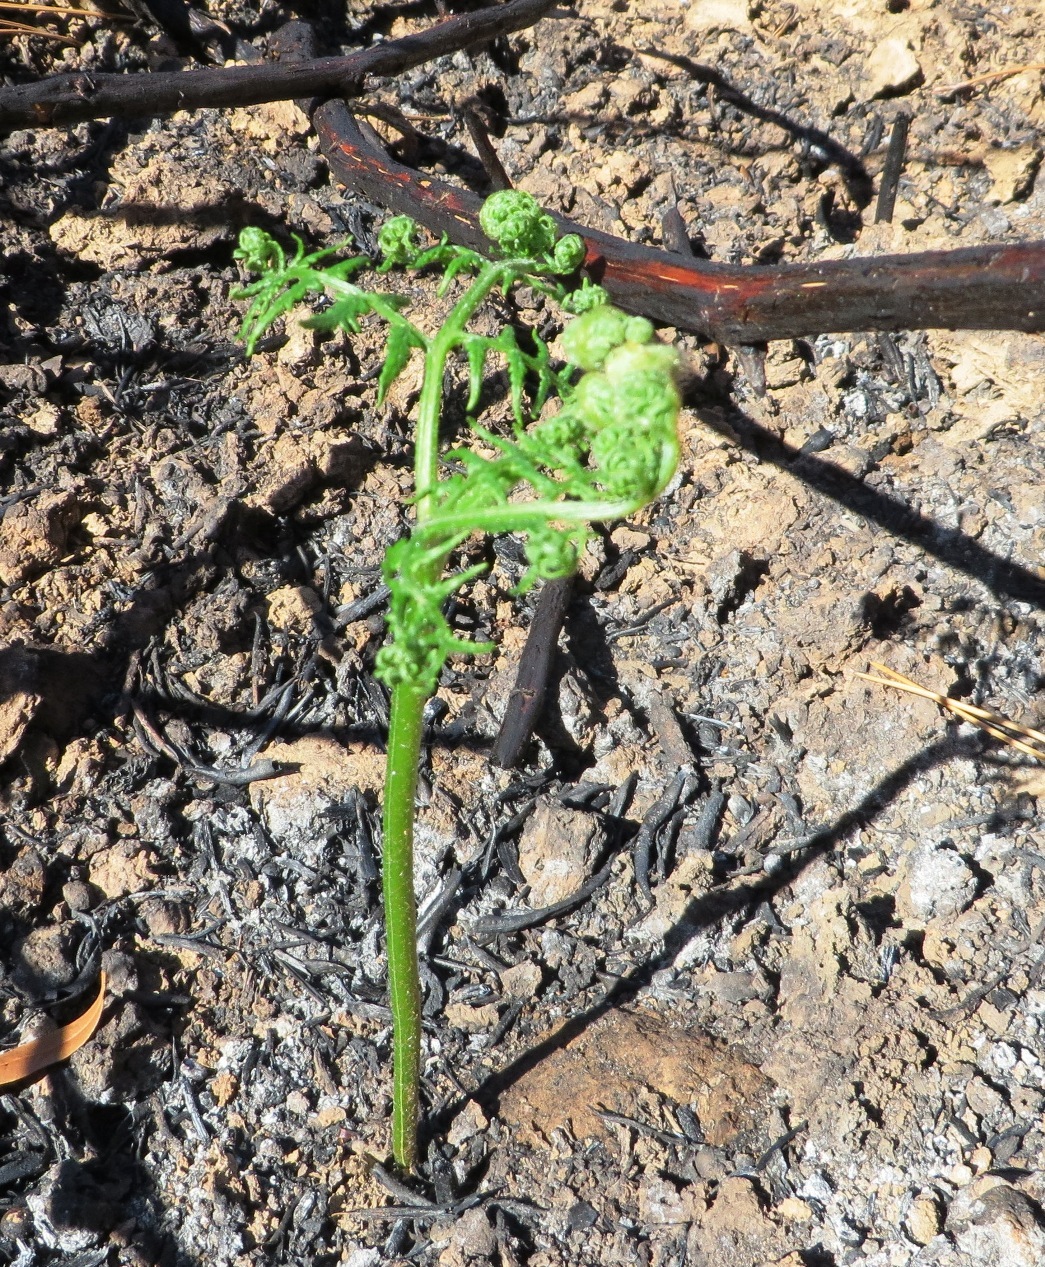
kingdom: Plantae
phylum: Tracheophyta
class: Polypodiopsida
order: Polypodiales
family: Dennstaedtiaceae
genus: Pteridium
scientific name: Pteridium aquilinum
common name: Bracken
